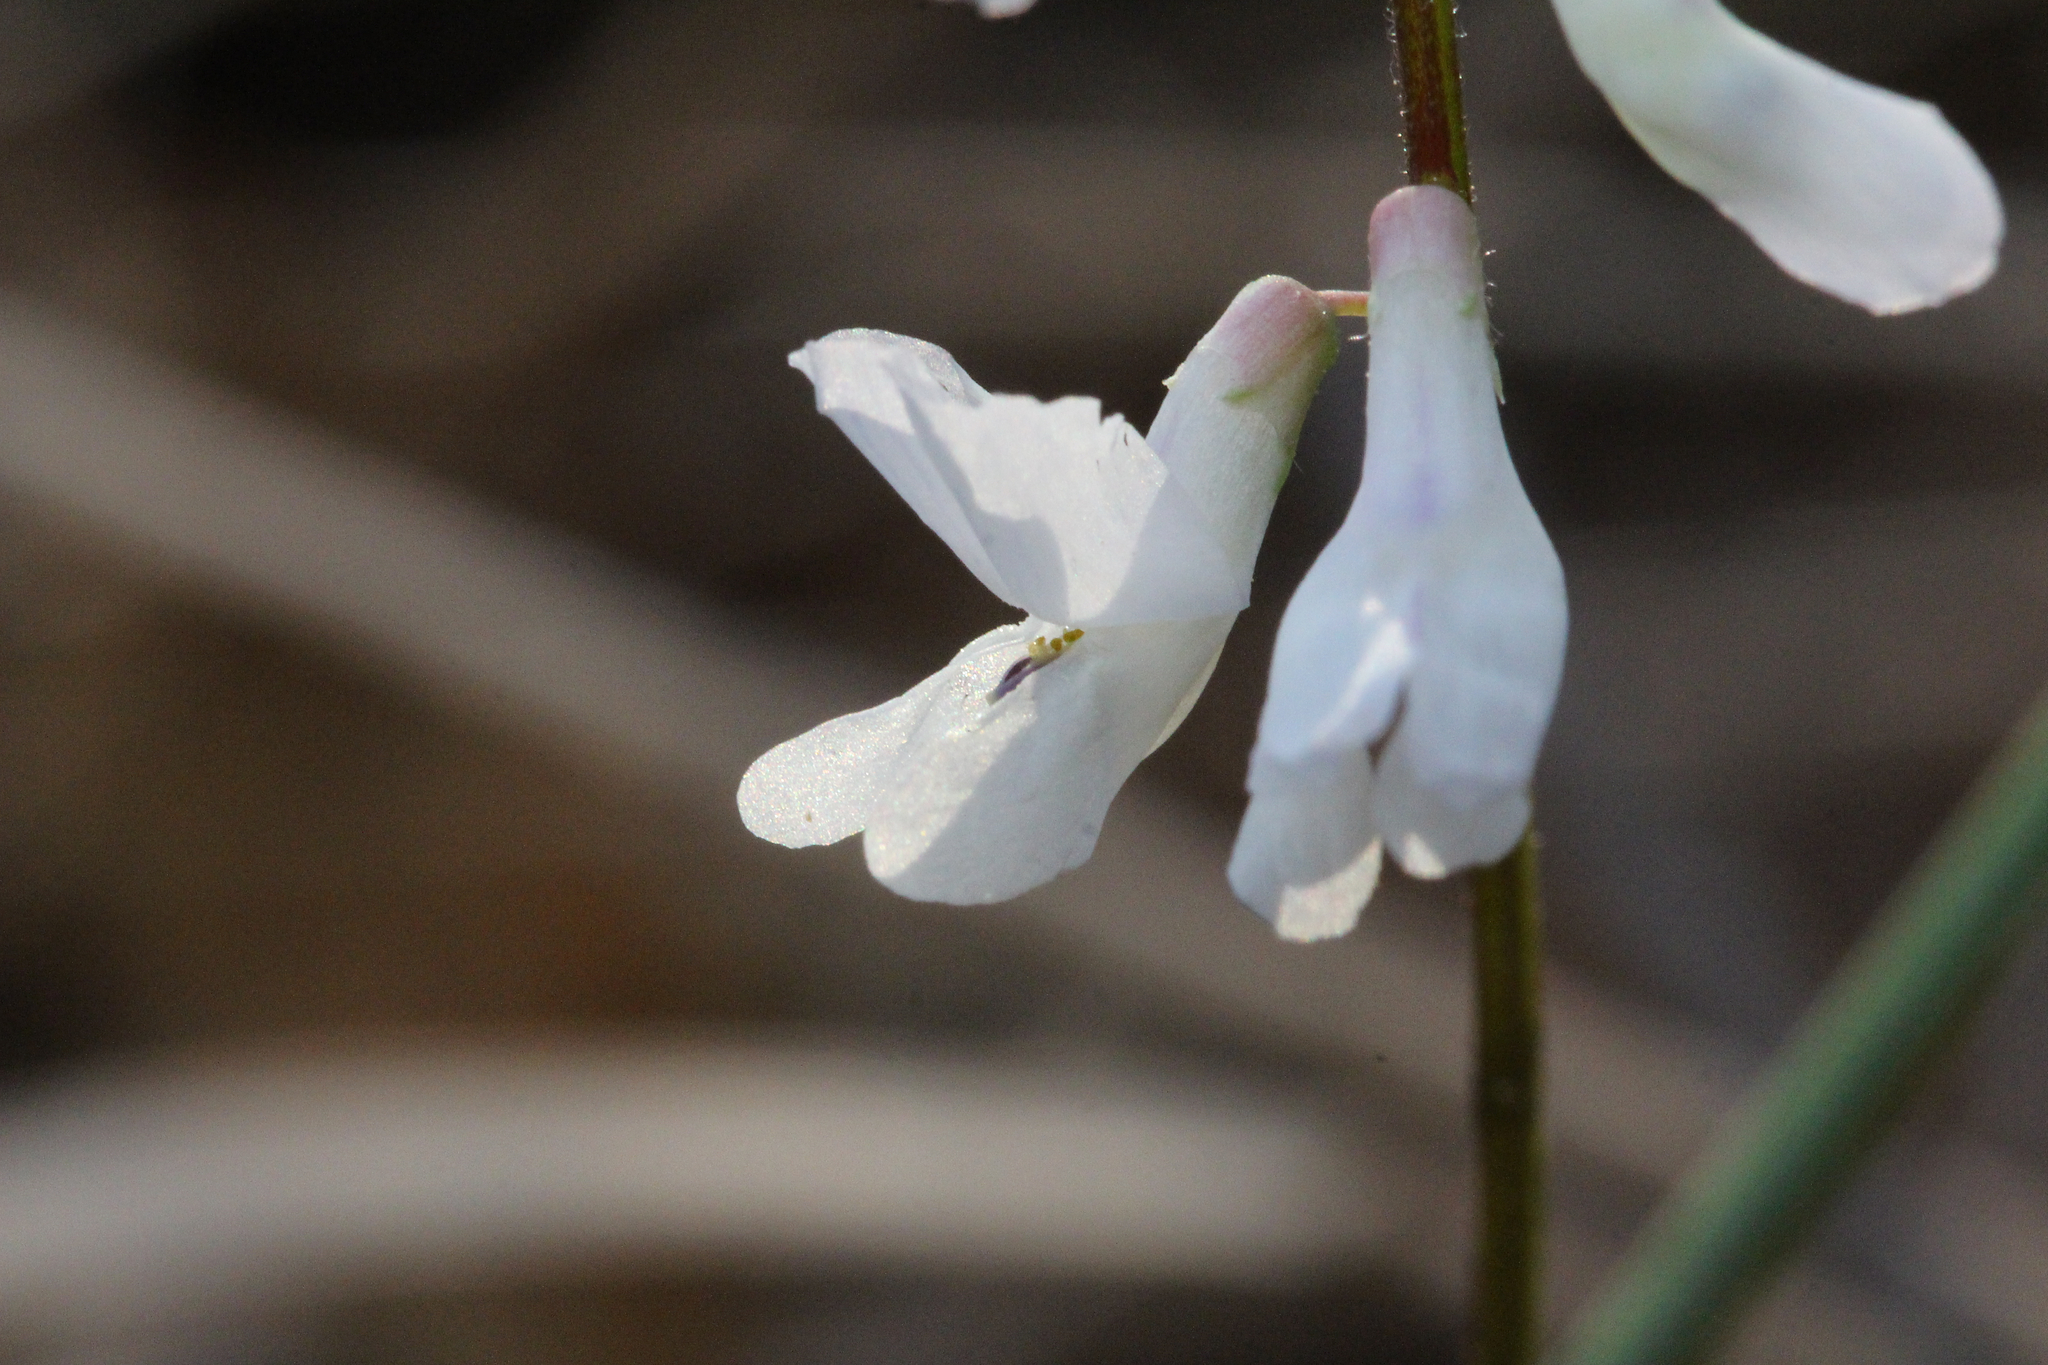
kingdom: Plantae
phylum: Tracheophyta
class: Magnoliopsida
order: Fabales
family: Fabaceae
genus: Vicia
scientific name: Vicia caroliniana
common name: Carolina vetch
